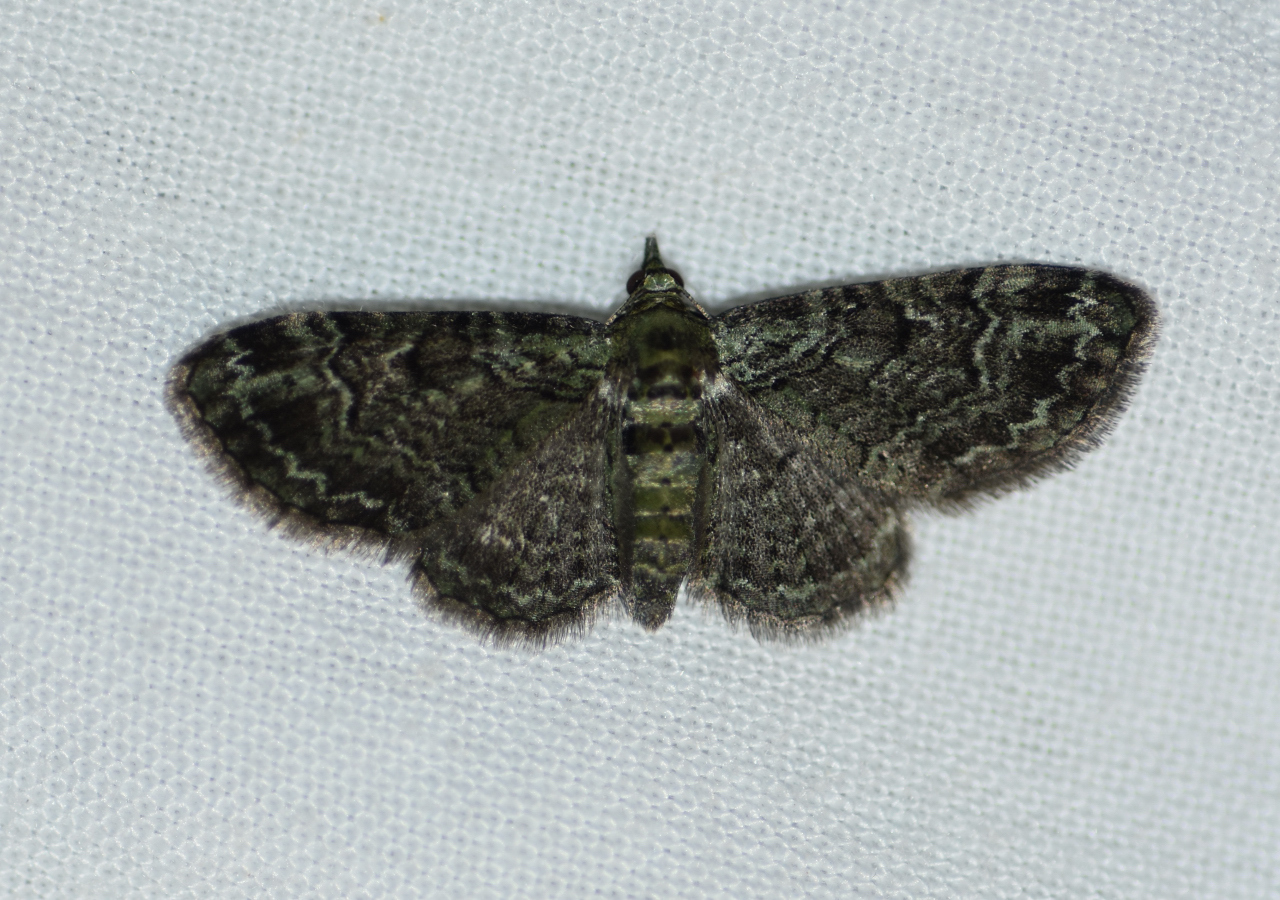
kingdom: Animalia
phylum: Arthropoda
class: Insecta
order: Lepidoptera
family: Geometridae
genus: Pasiphila
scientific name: Pasiphila rectangulata
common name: Green pug
